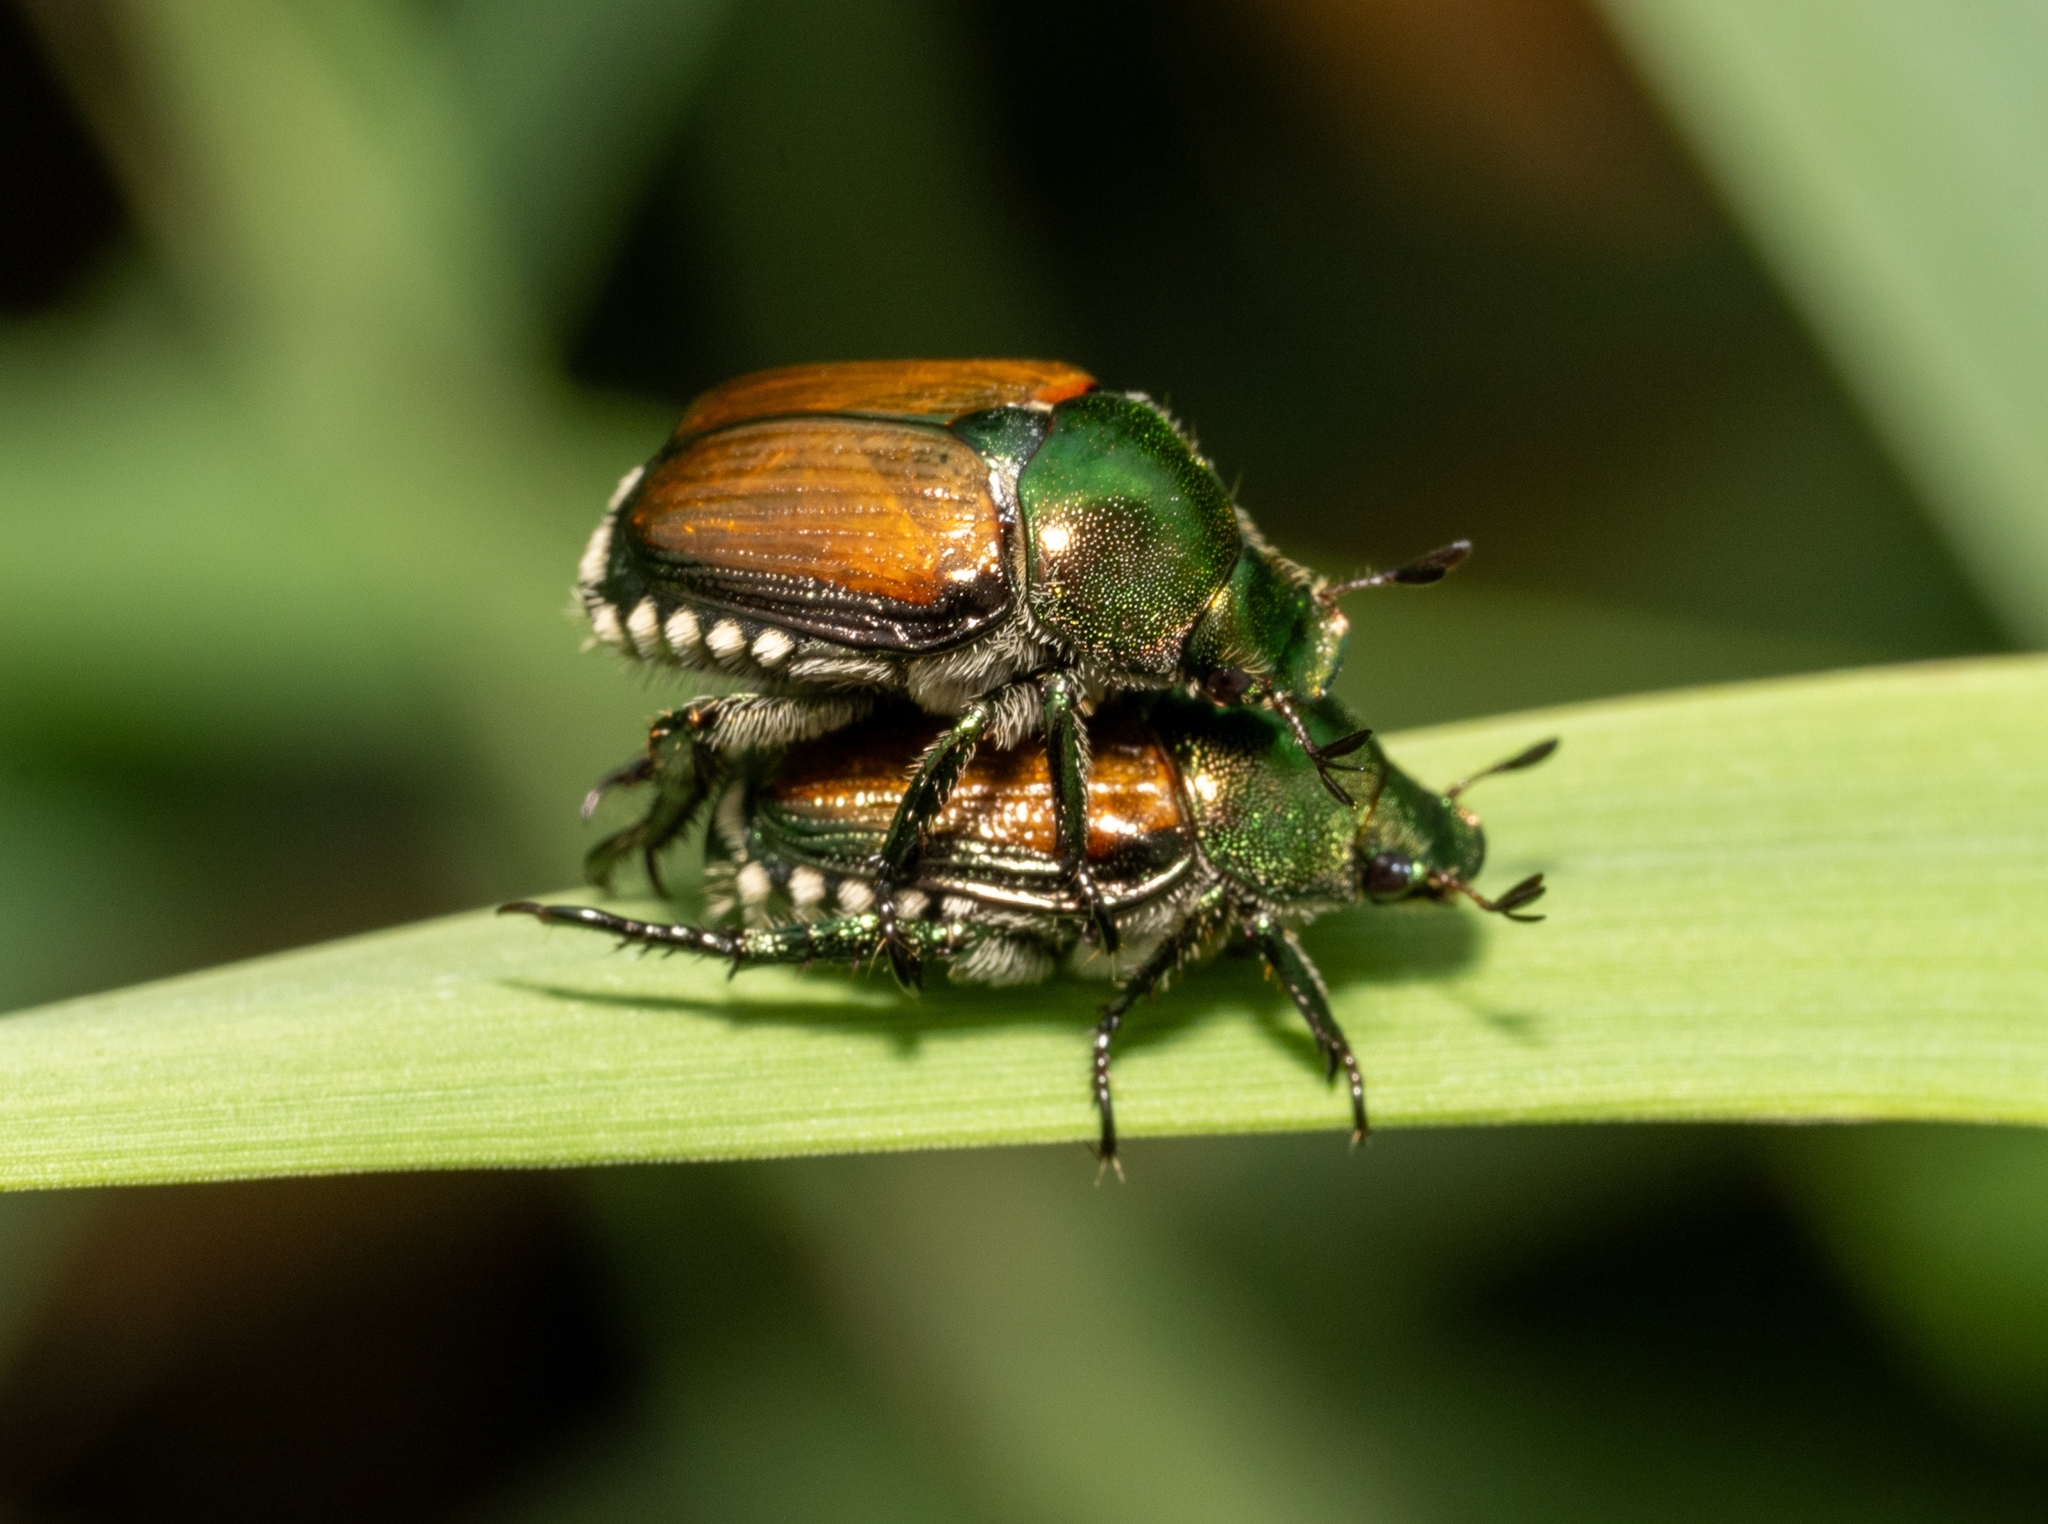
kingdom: Animalia
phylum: Arthropoda
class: Insecta
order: Coleoptera
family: Scarabaeidae
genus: Popillia
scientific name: Popillia japonica
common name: Japanese beetle
